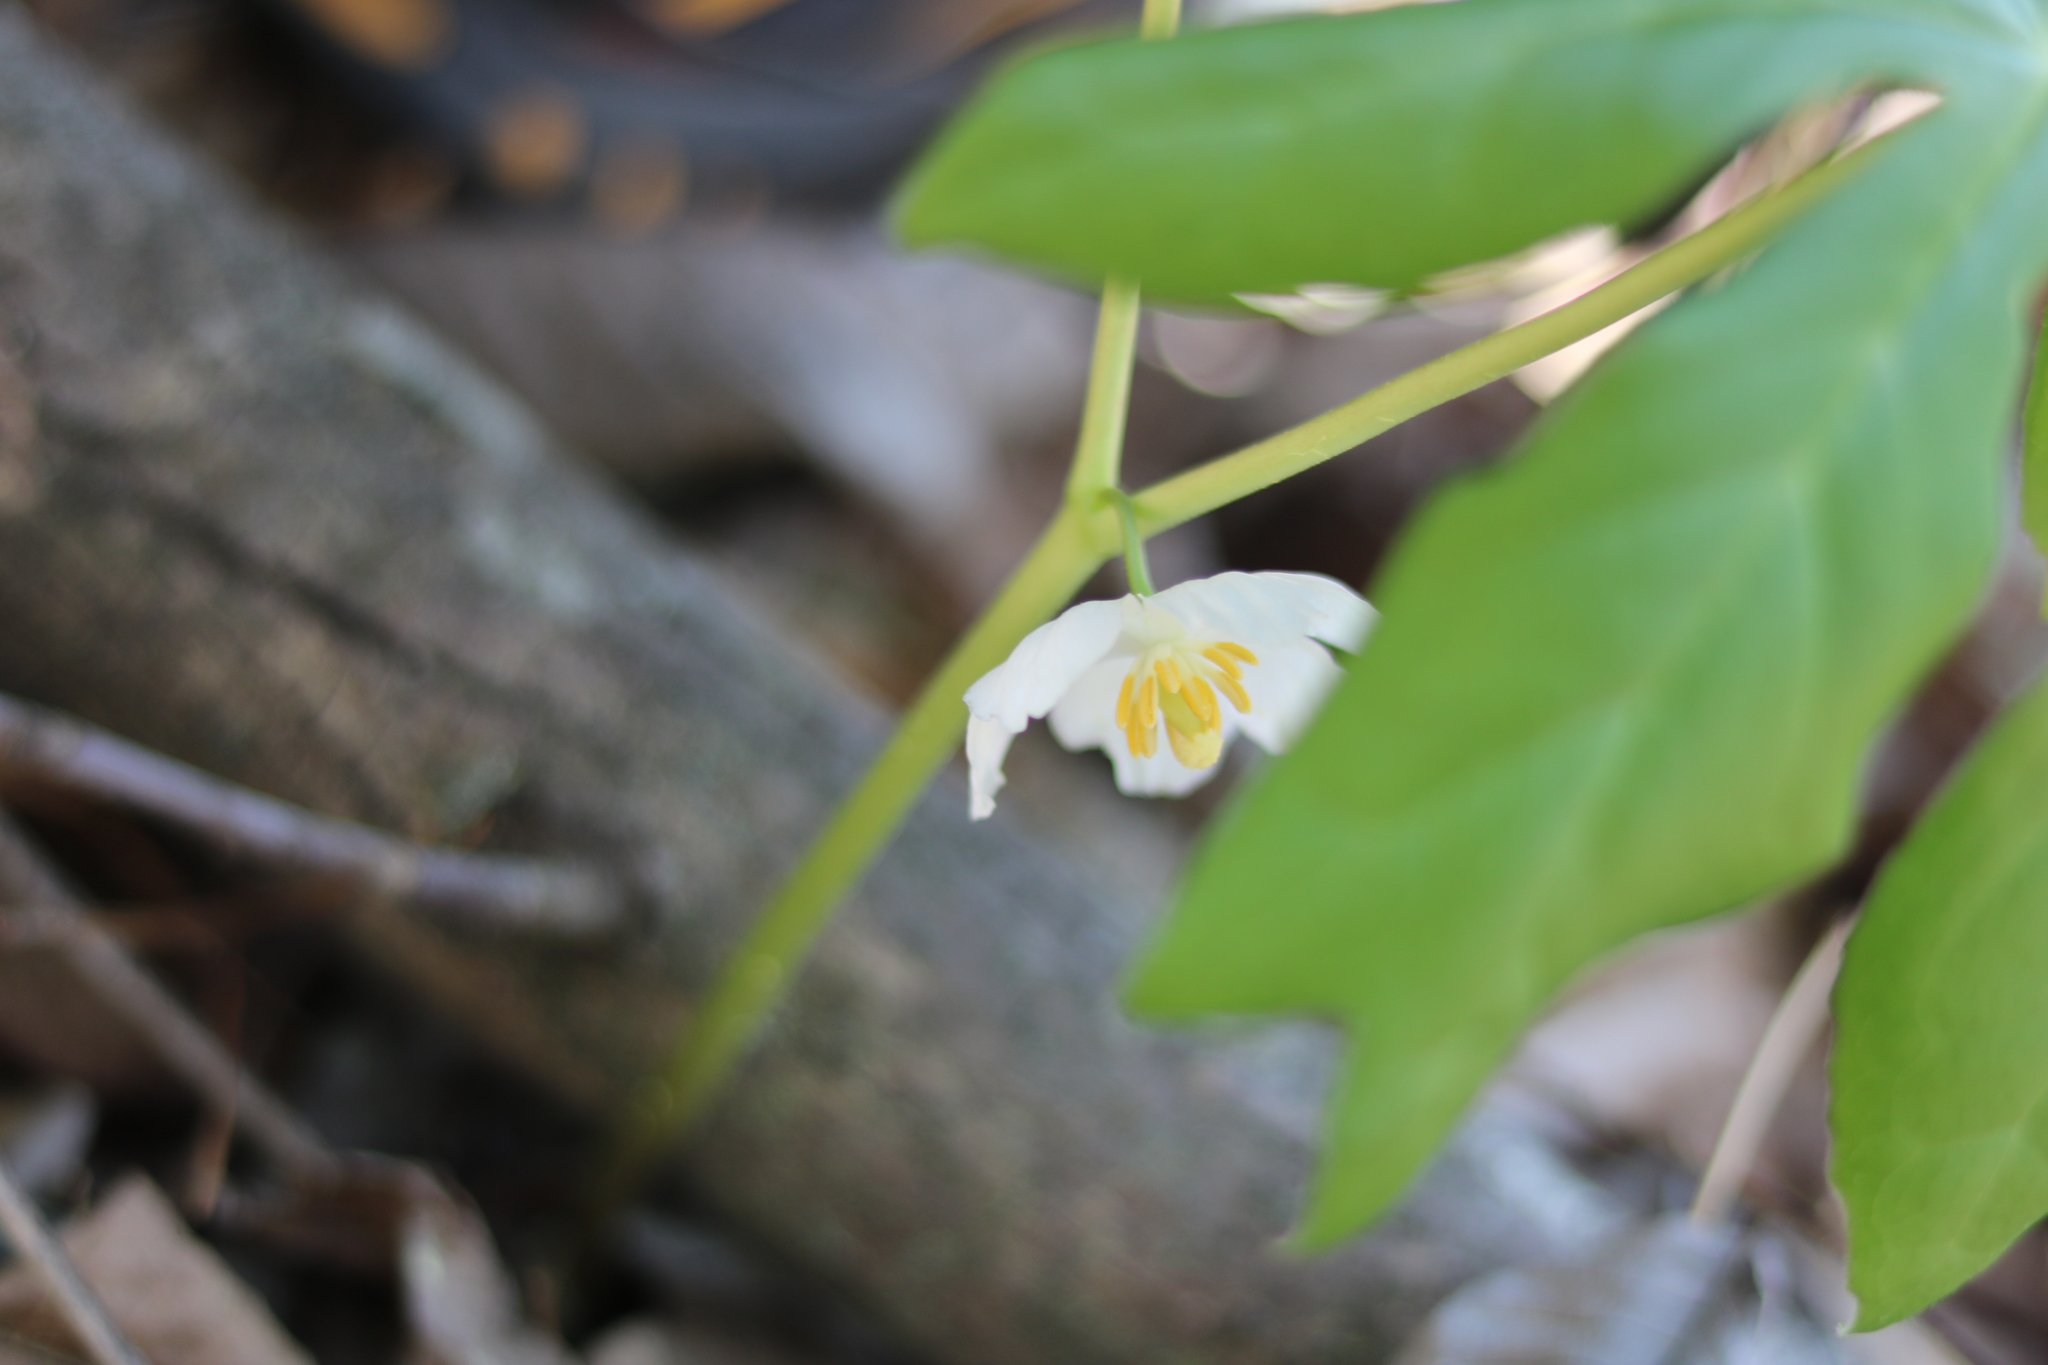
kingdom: Plantae
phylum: Tracheophyta
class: Magnoliopsida
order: Ranunculales
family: Berberidaceae
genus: Podophyllum
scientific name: Podophyllum peltatum
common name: Wild mandrake
